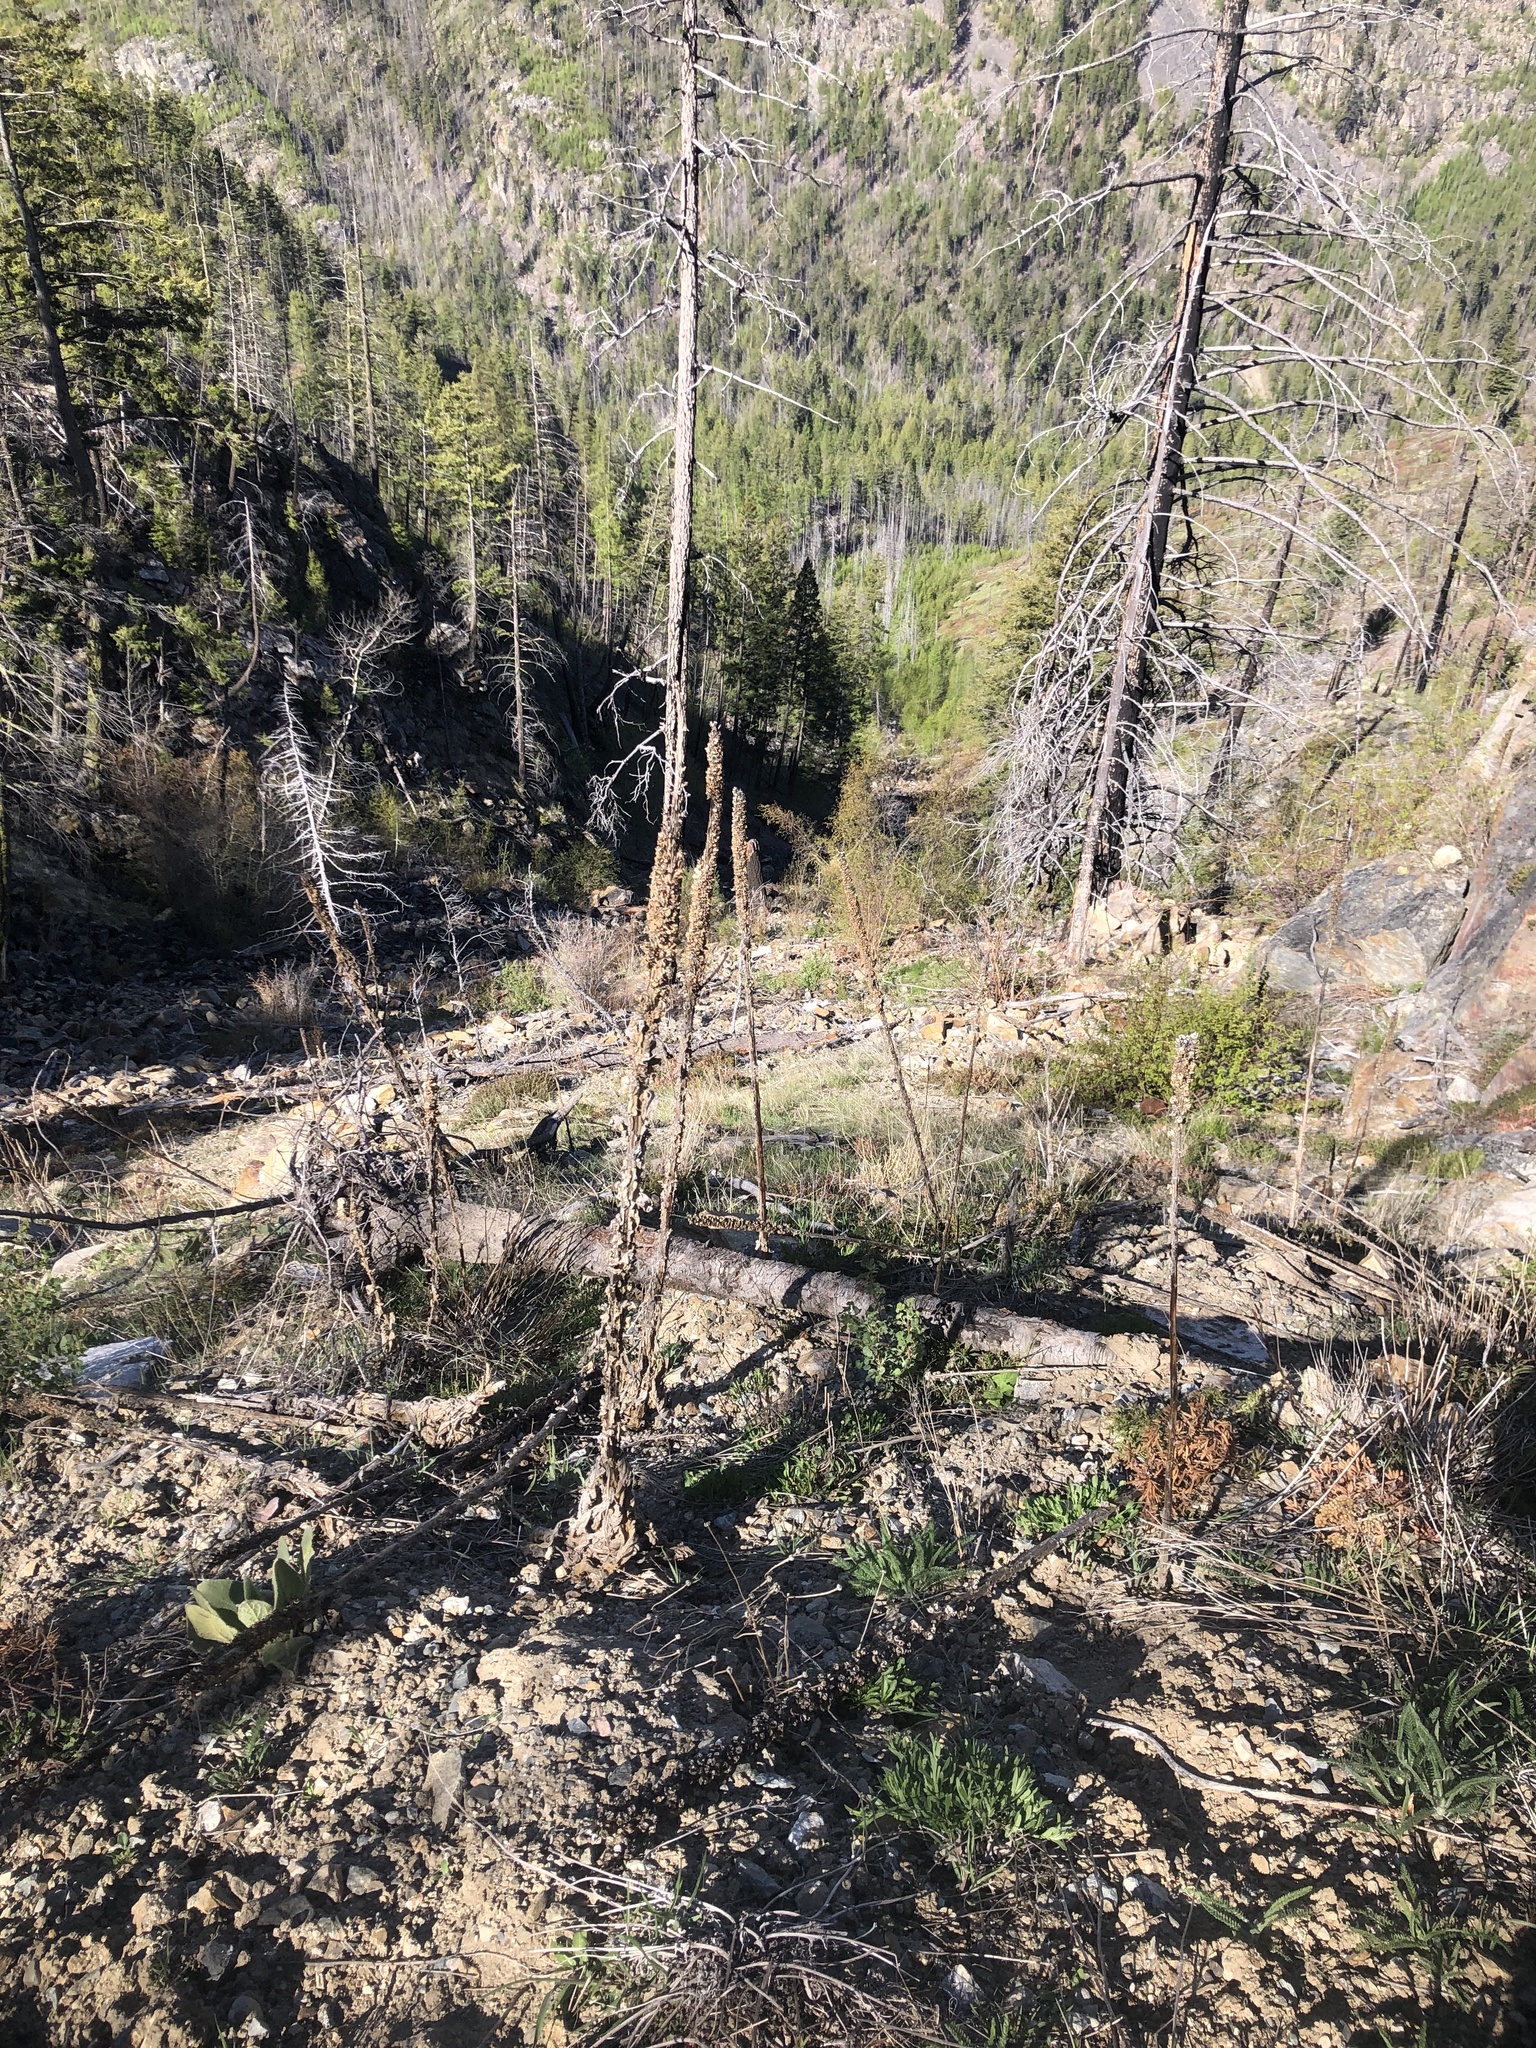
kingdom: Plantae
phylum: Tracheophyta
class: Magnoliopsida
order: Lamiales
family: Scrophulariaceae
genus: Verbascum
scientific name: Verbascum thapsus
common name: Common mullein
